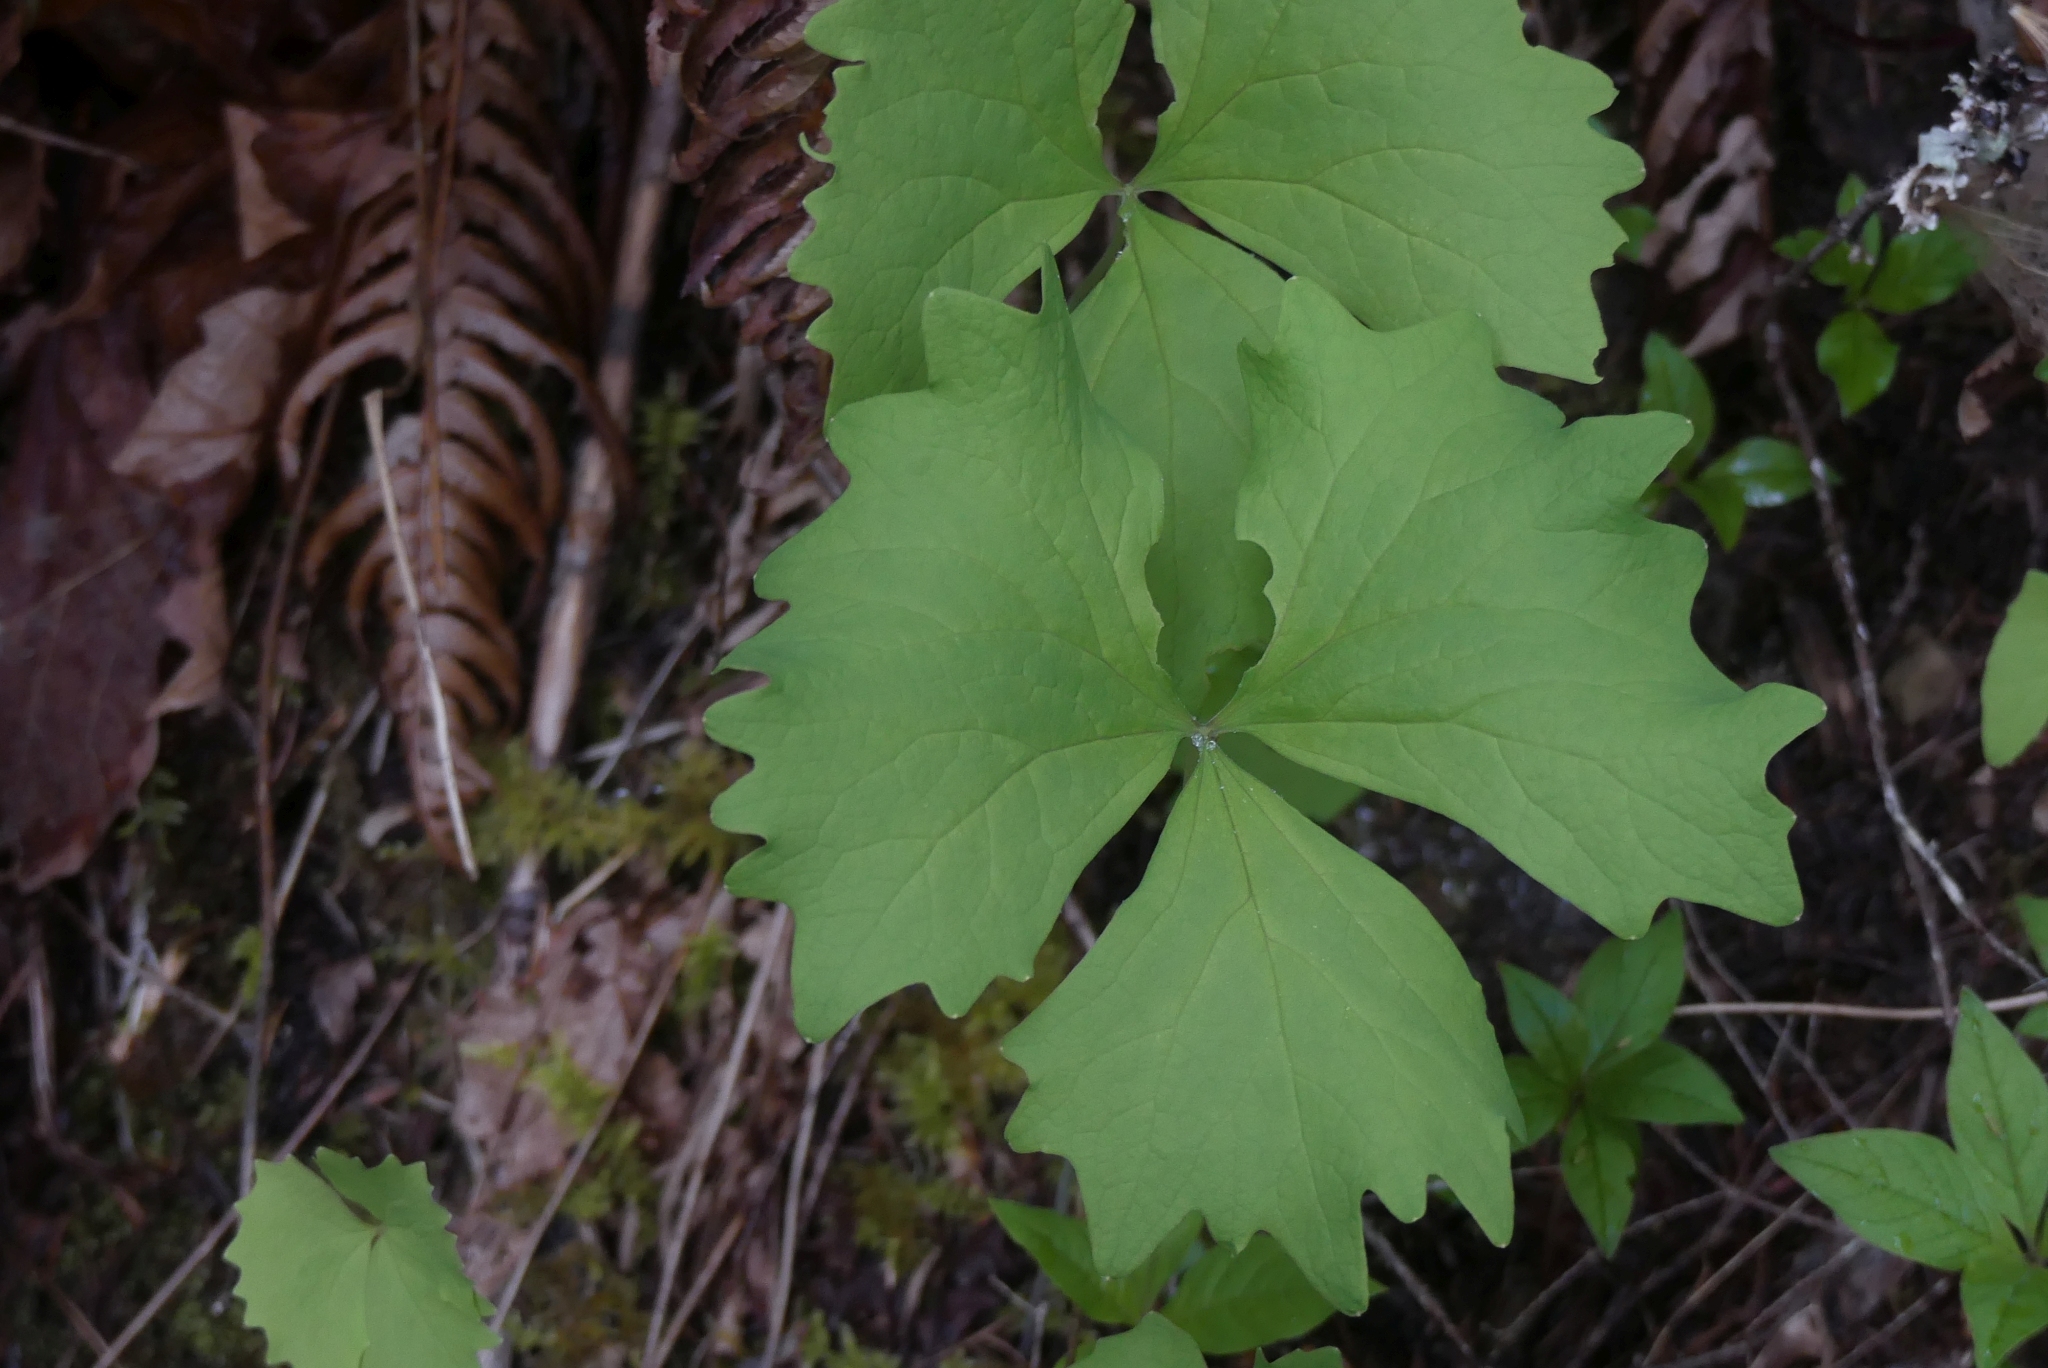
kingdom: Plantae
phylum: Tracheophyta
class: Magnoliopsida
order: Ranunculales
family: Berberidaceae
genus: Achlys
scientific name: Achlys triphylla
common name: Vanilla-leaf
